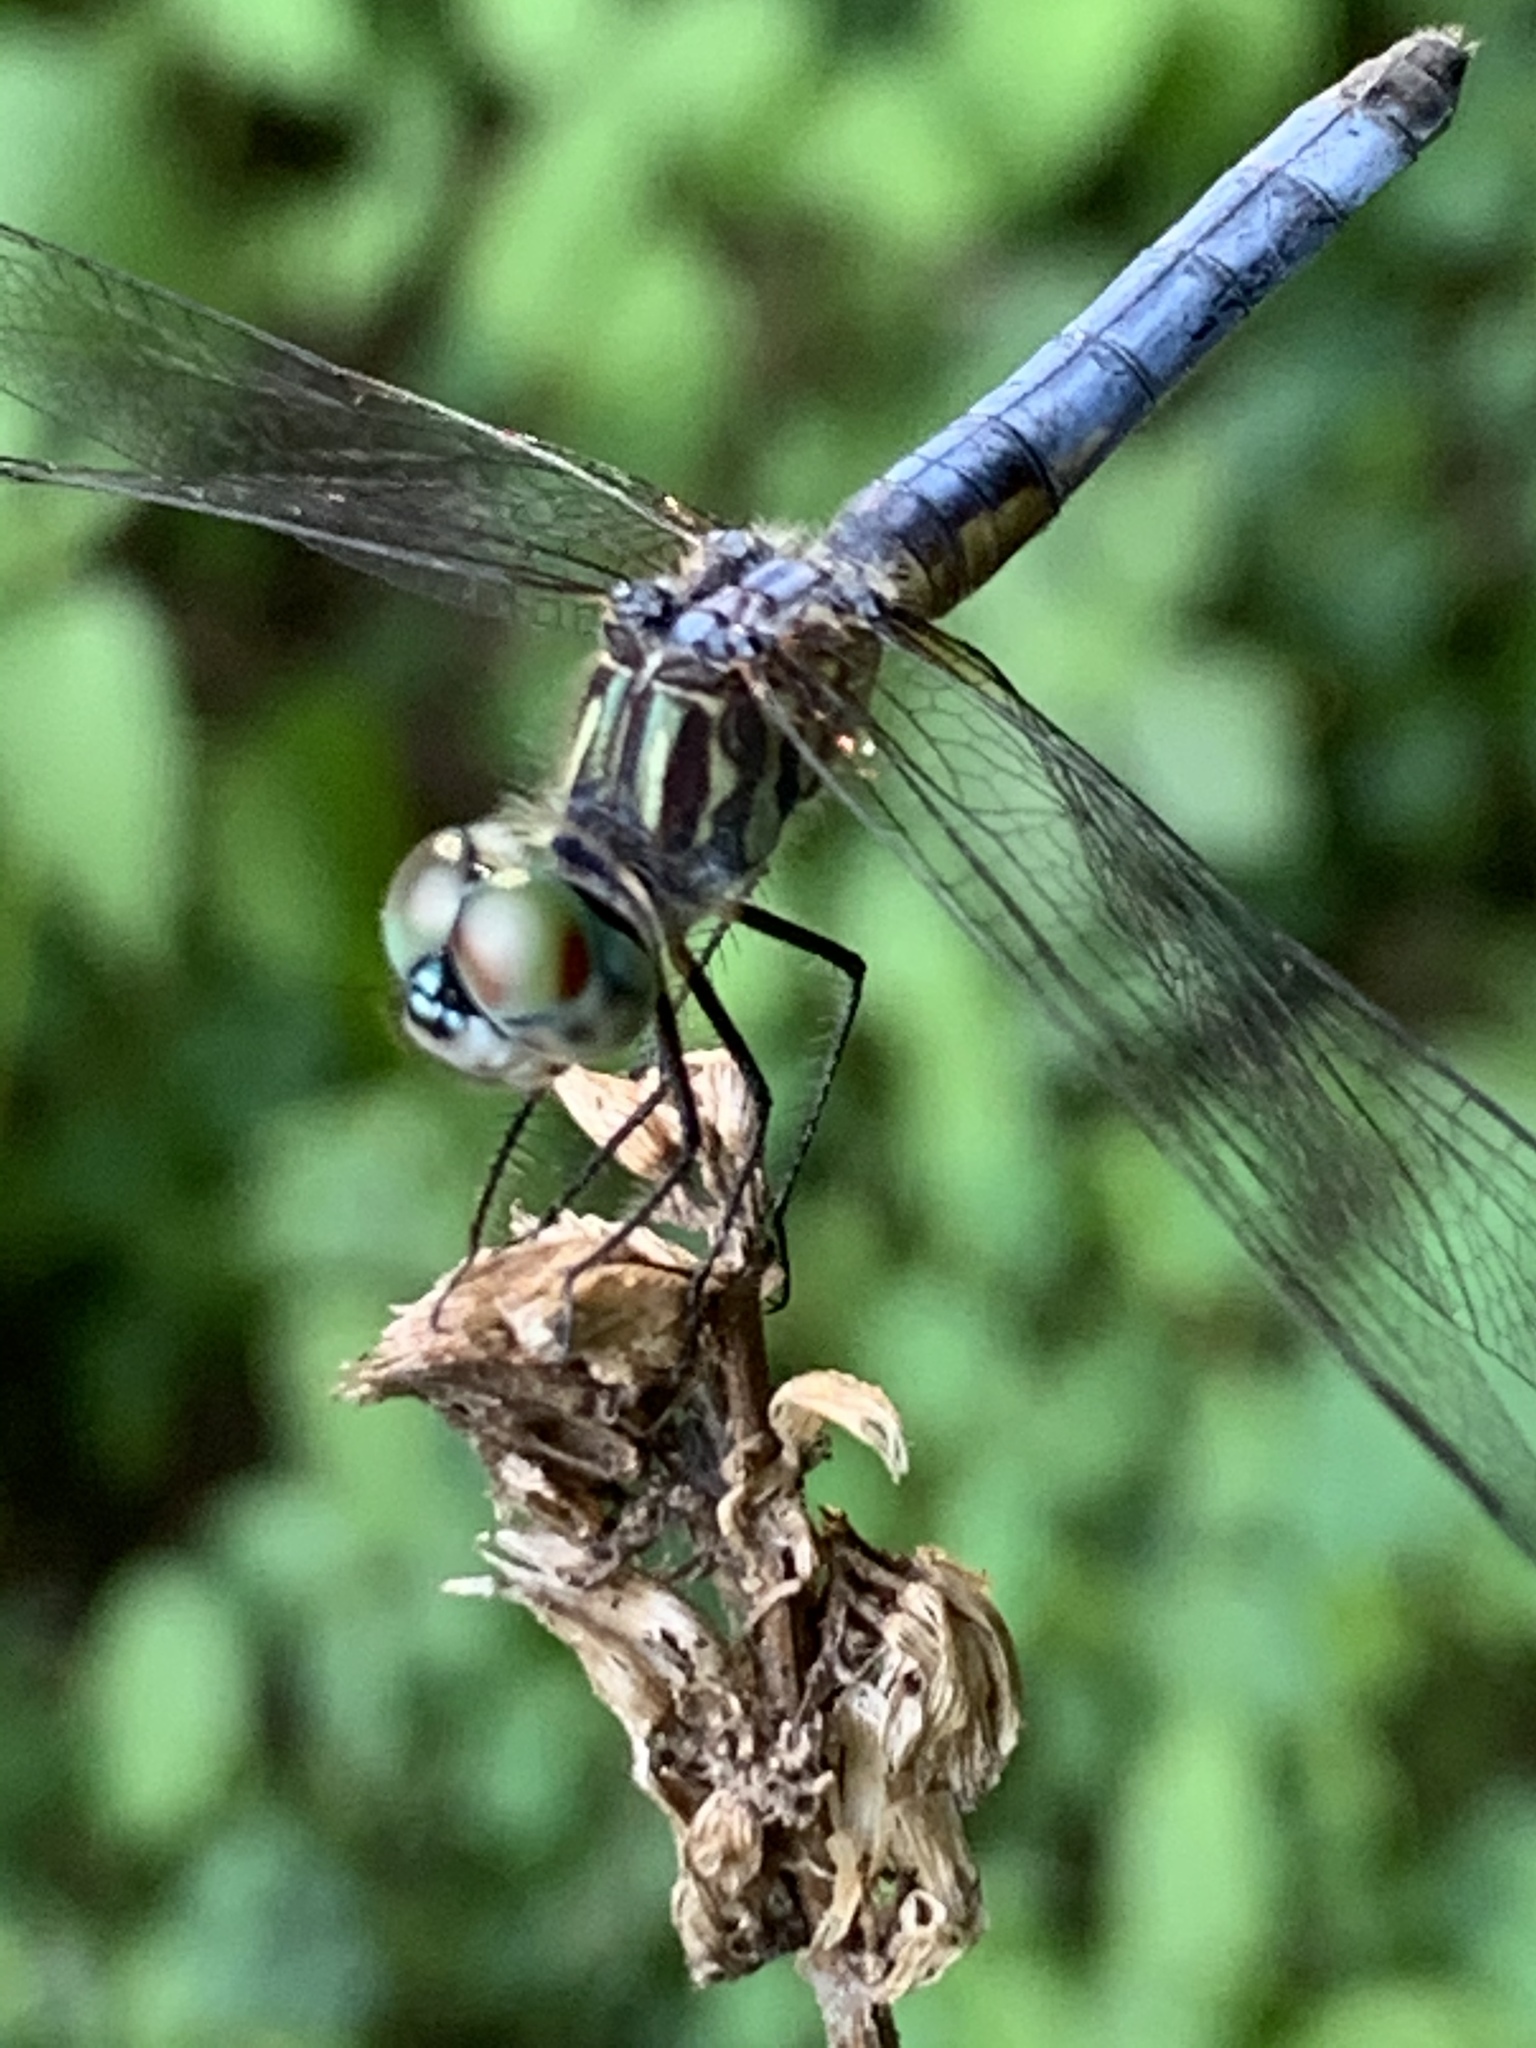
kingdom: Animalia
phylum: Arthropoda
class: Insecta
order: Odonata
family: Libellulidae
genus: Pachydiplax
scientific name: Pachydiplax longipennis
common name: Blue dasher
